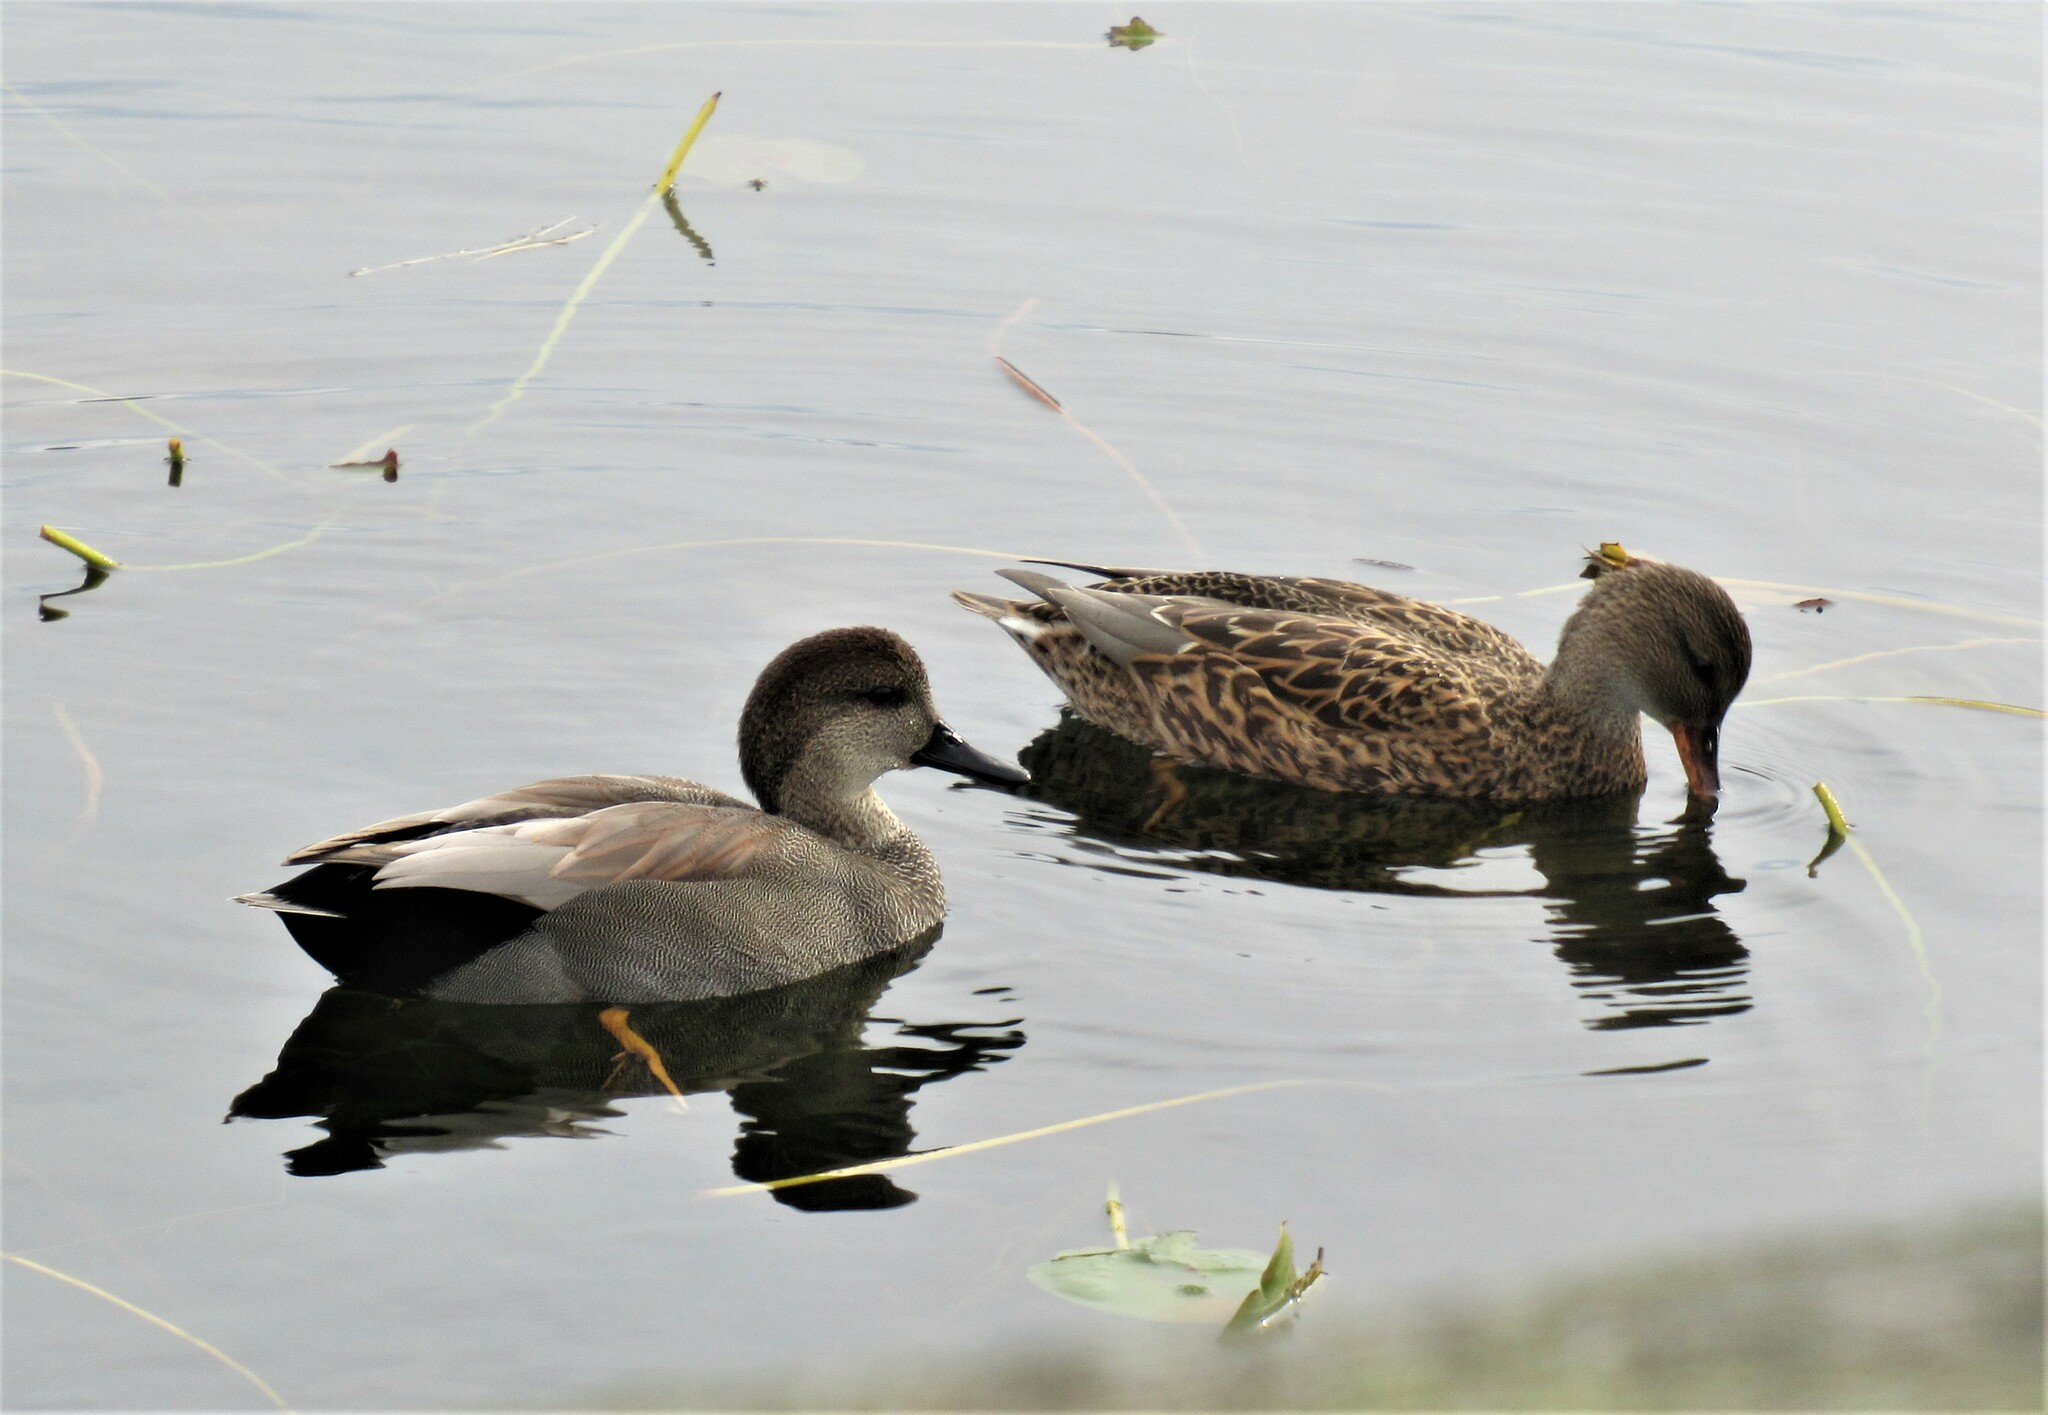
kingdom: Animalia
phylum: Chordata
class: Aves
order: Anseriformes
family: Anatidae
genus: Mareca
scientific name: Mareca strepera
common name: Gadwall
